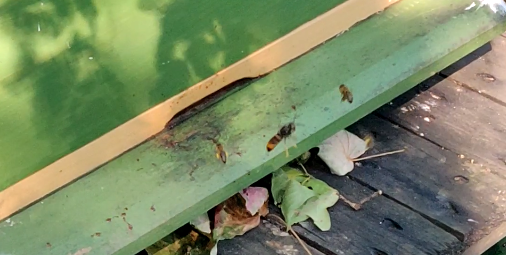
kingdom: Animalia
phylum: Arthropoda
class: Insecta
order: Hymenoptera
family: Vespidae
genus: Vespa
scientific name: Vespa velutina
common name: Asian hornet
